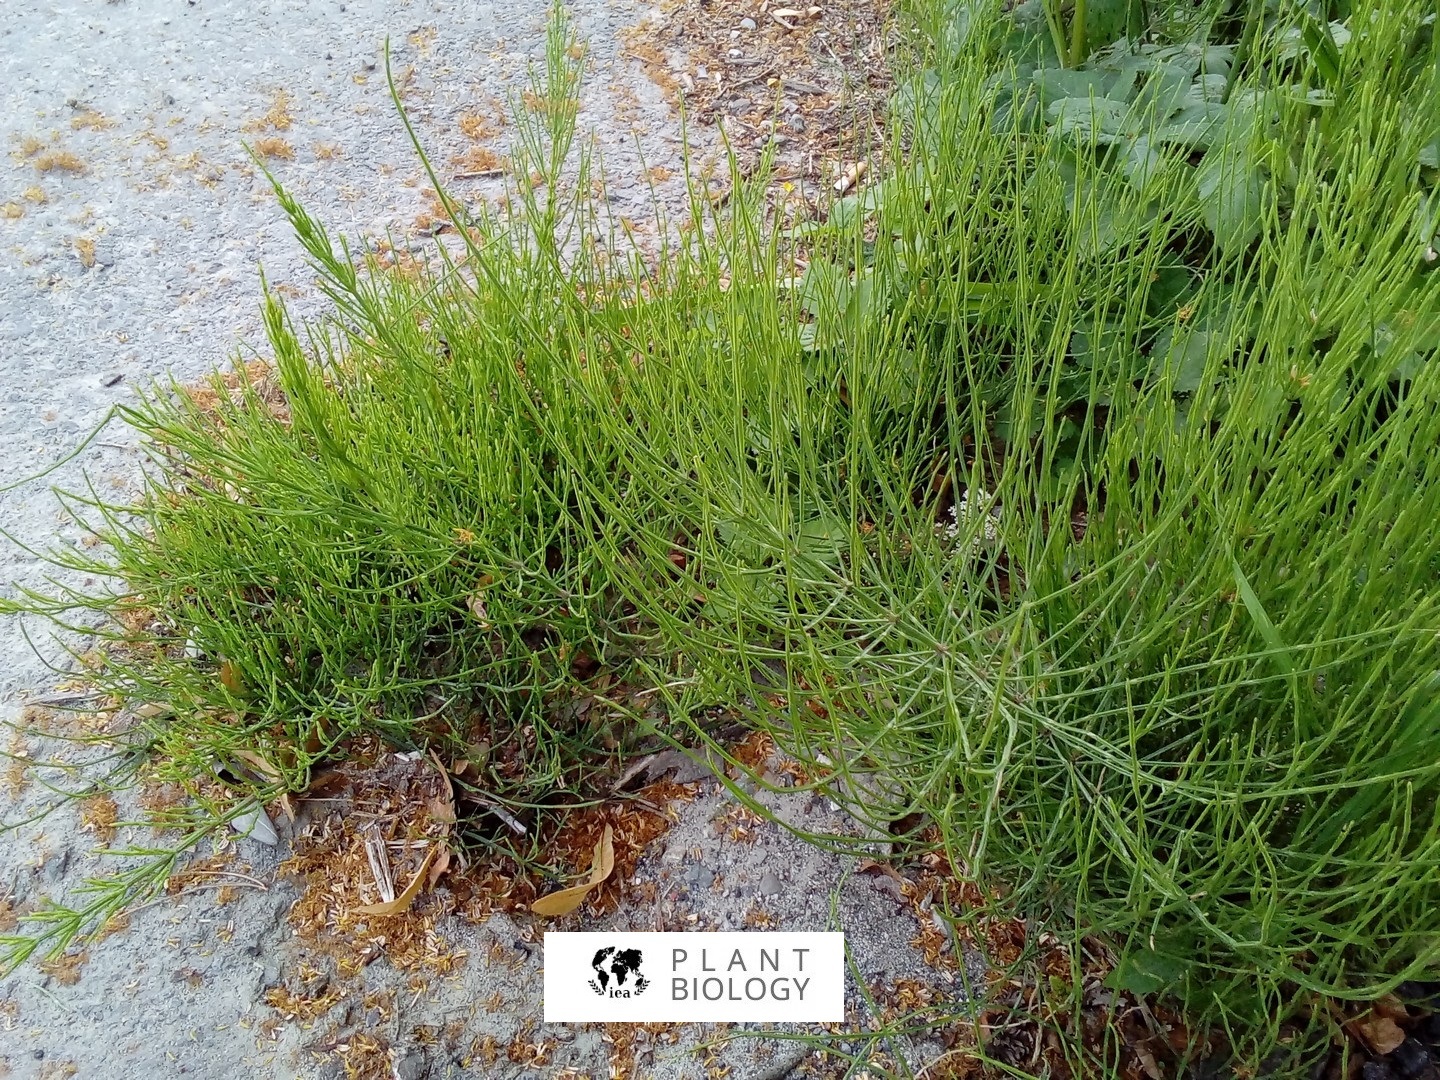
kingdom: Plantae
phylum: Tracheophyta
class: Polypodiopsida
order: Equisetales
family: Equisetaceae
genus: Equisetum
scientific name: Equisetum arvense
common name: Field horsetail
